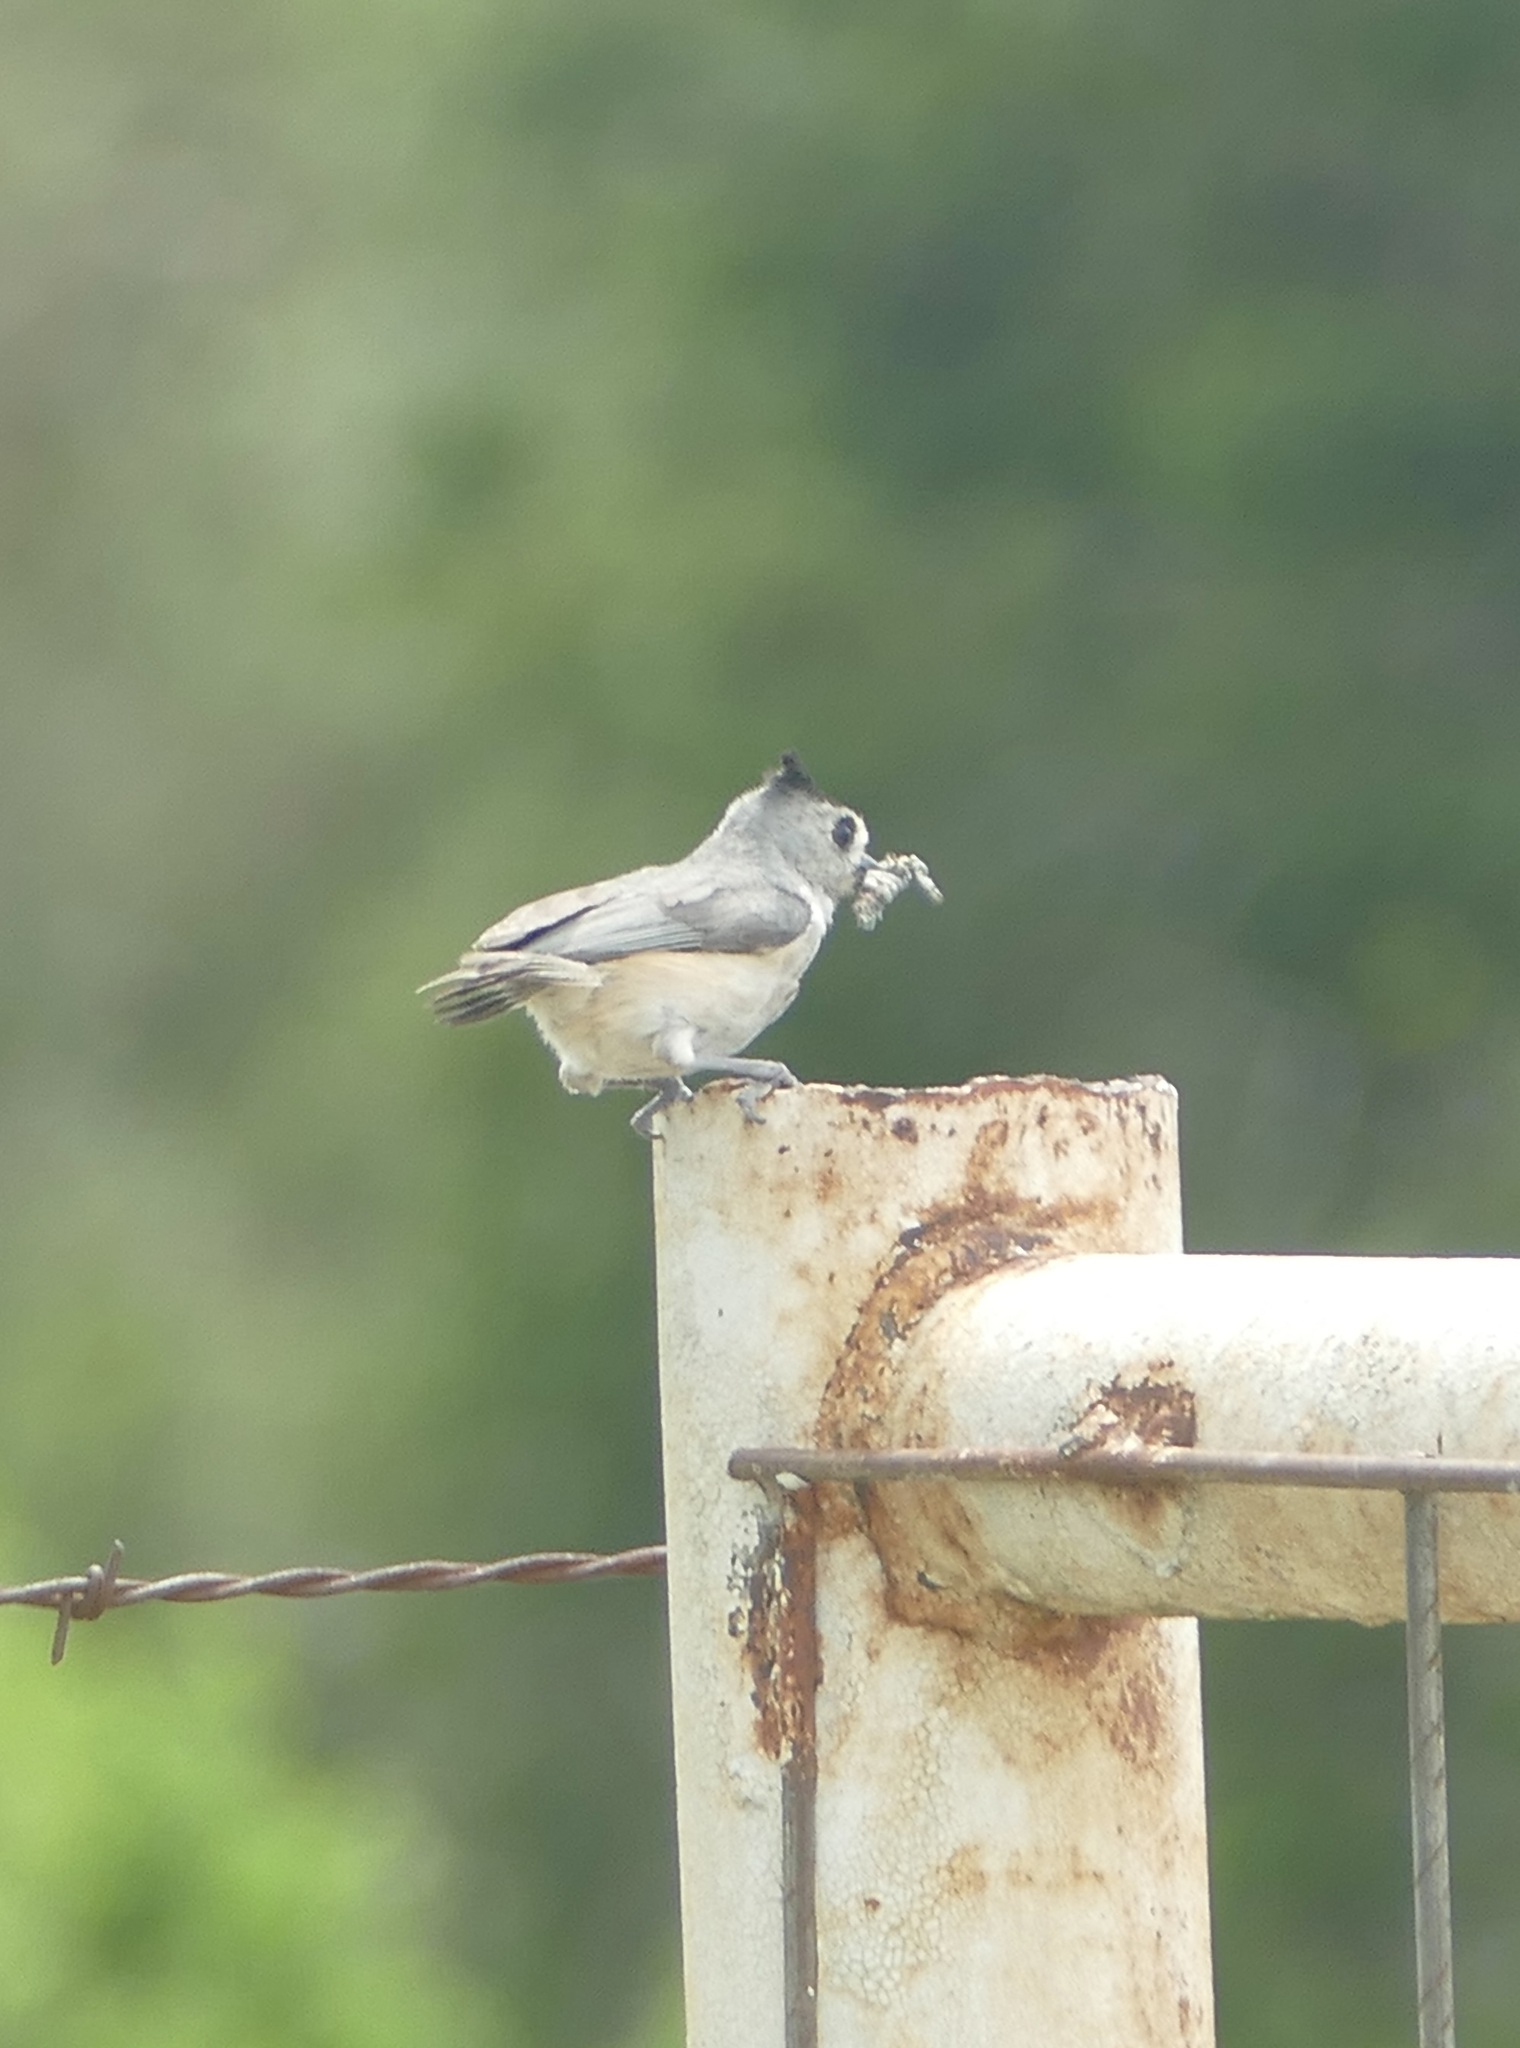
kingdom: Animalia
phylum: Chordata
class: Aves
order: Passeriformes
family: Paridae
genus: Baeolophus
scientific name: Baeolophus atricristatus
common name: Black-crested titmouse
